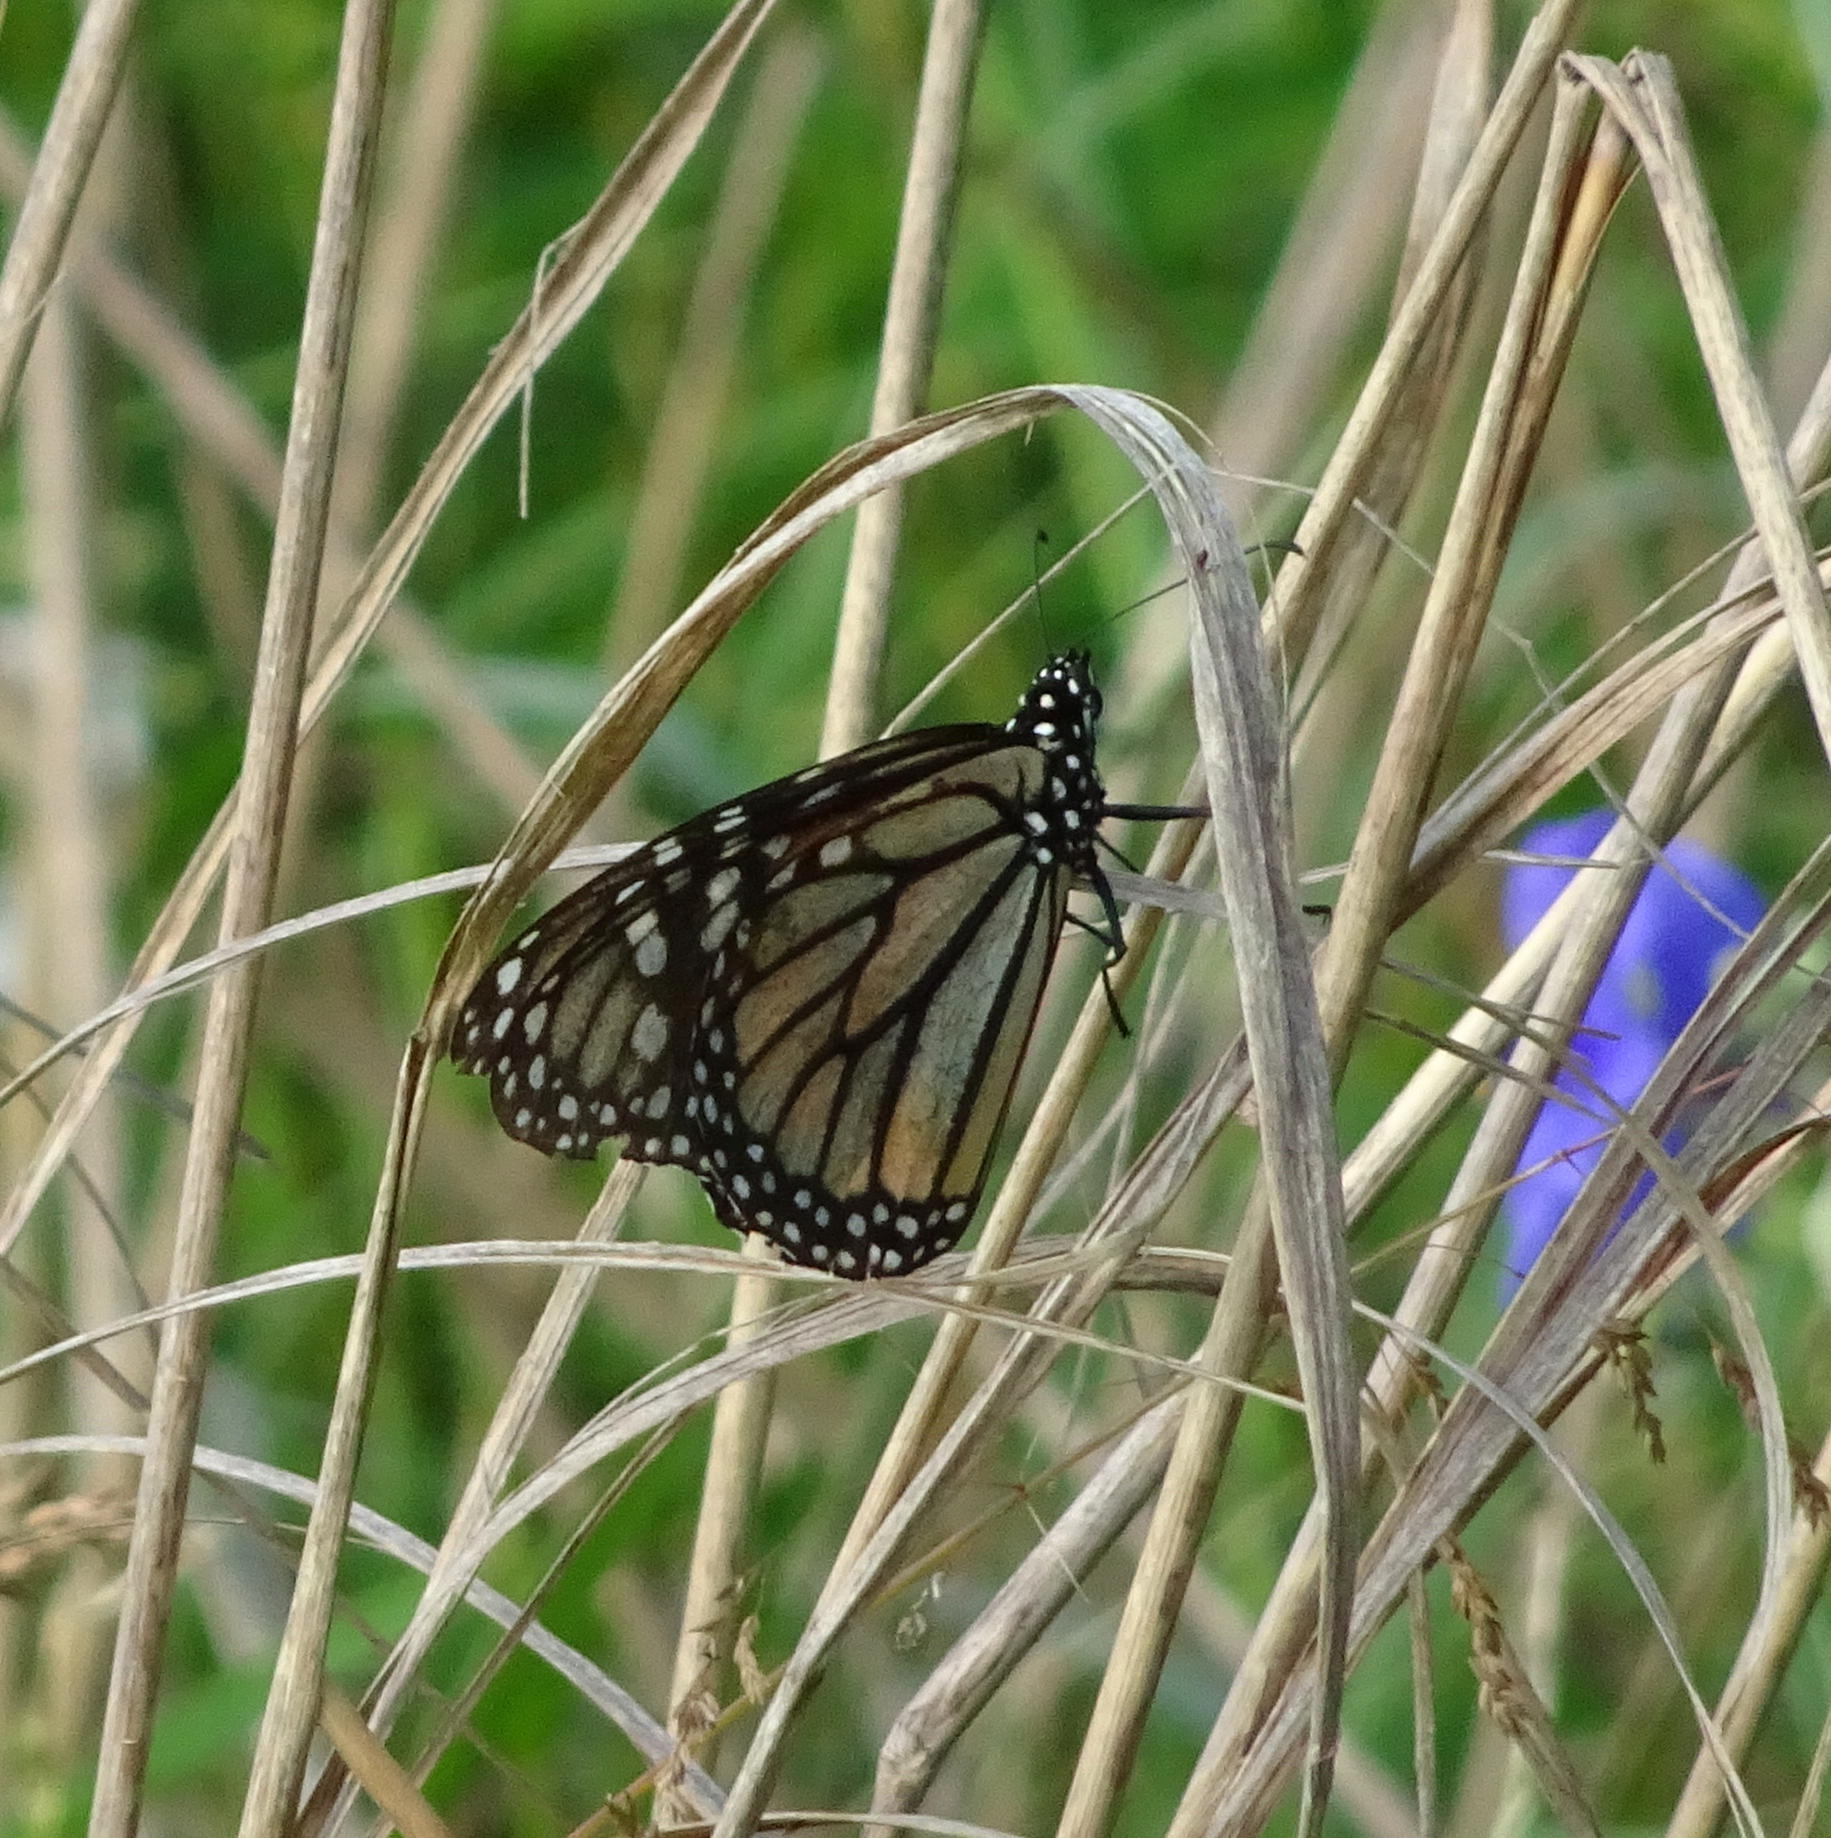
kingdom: Animalia
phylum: Arthropoda
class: Insecta
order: Lepidoptera
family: Nymphalidae
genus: Danaus
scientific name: Danaus plexippus
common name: Monarch
